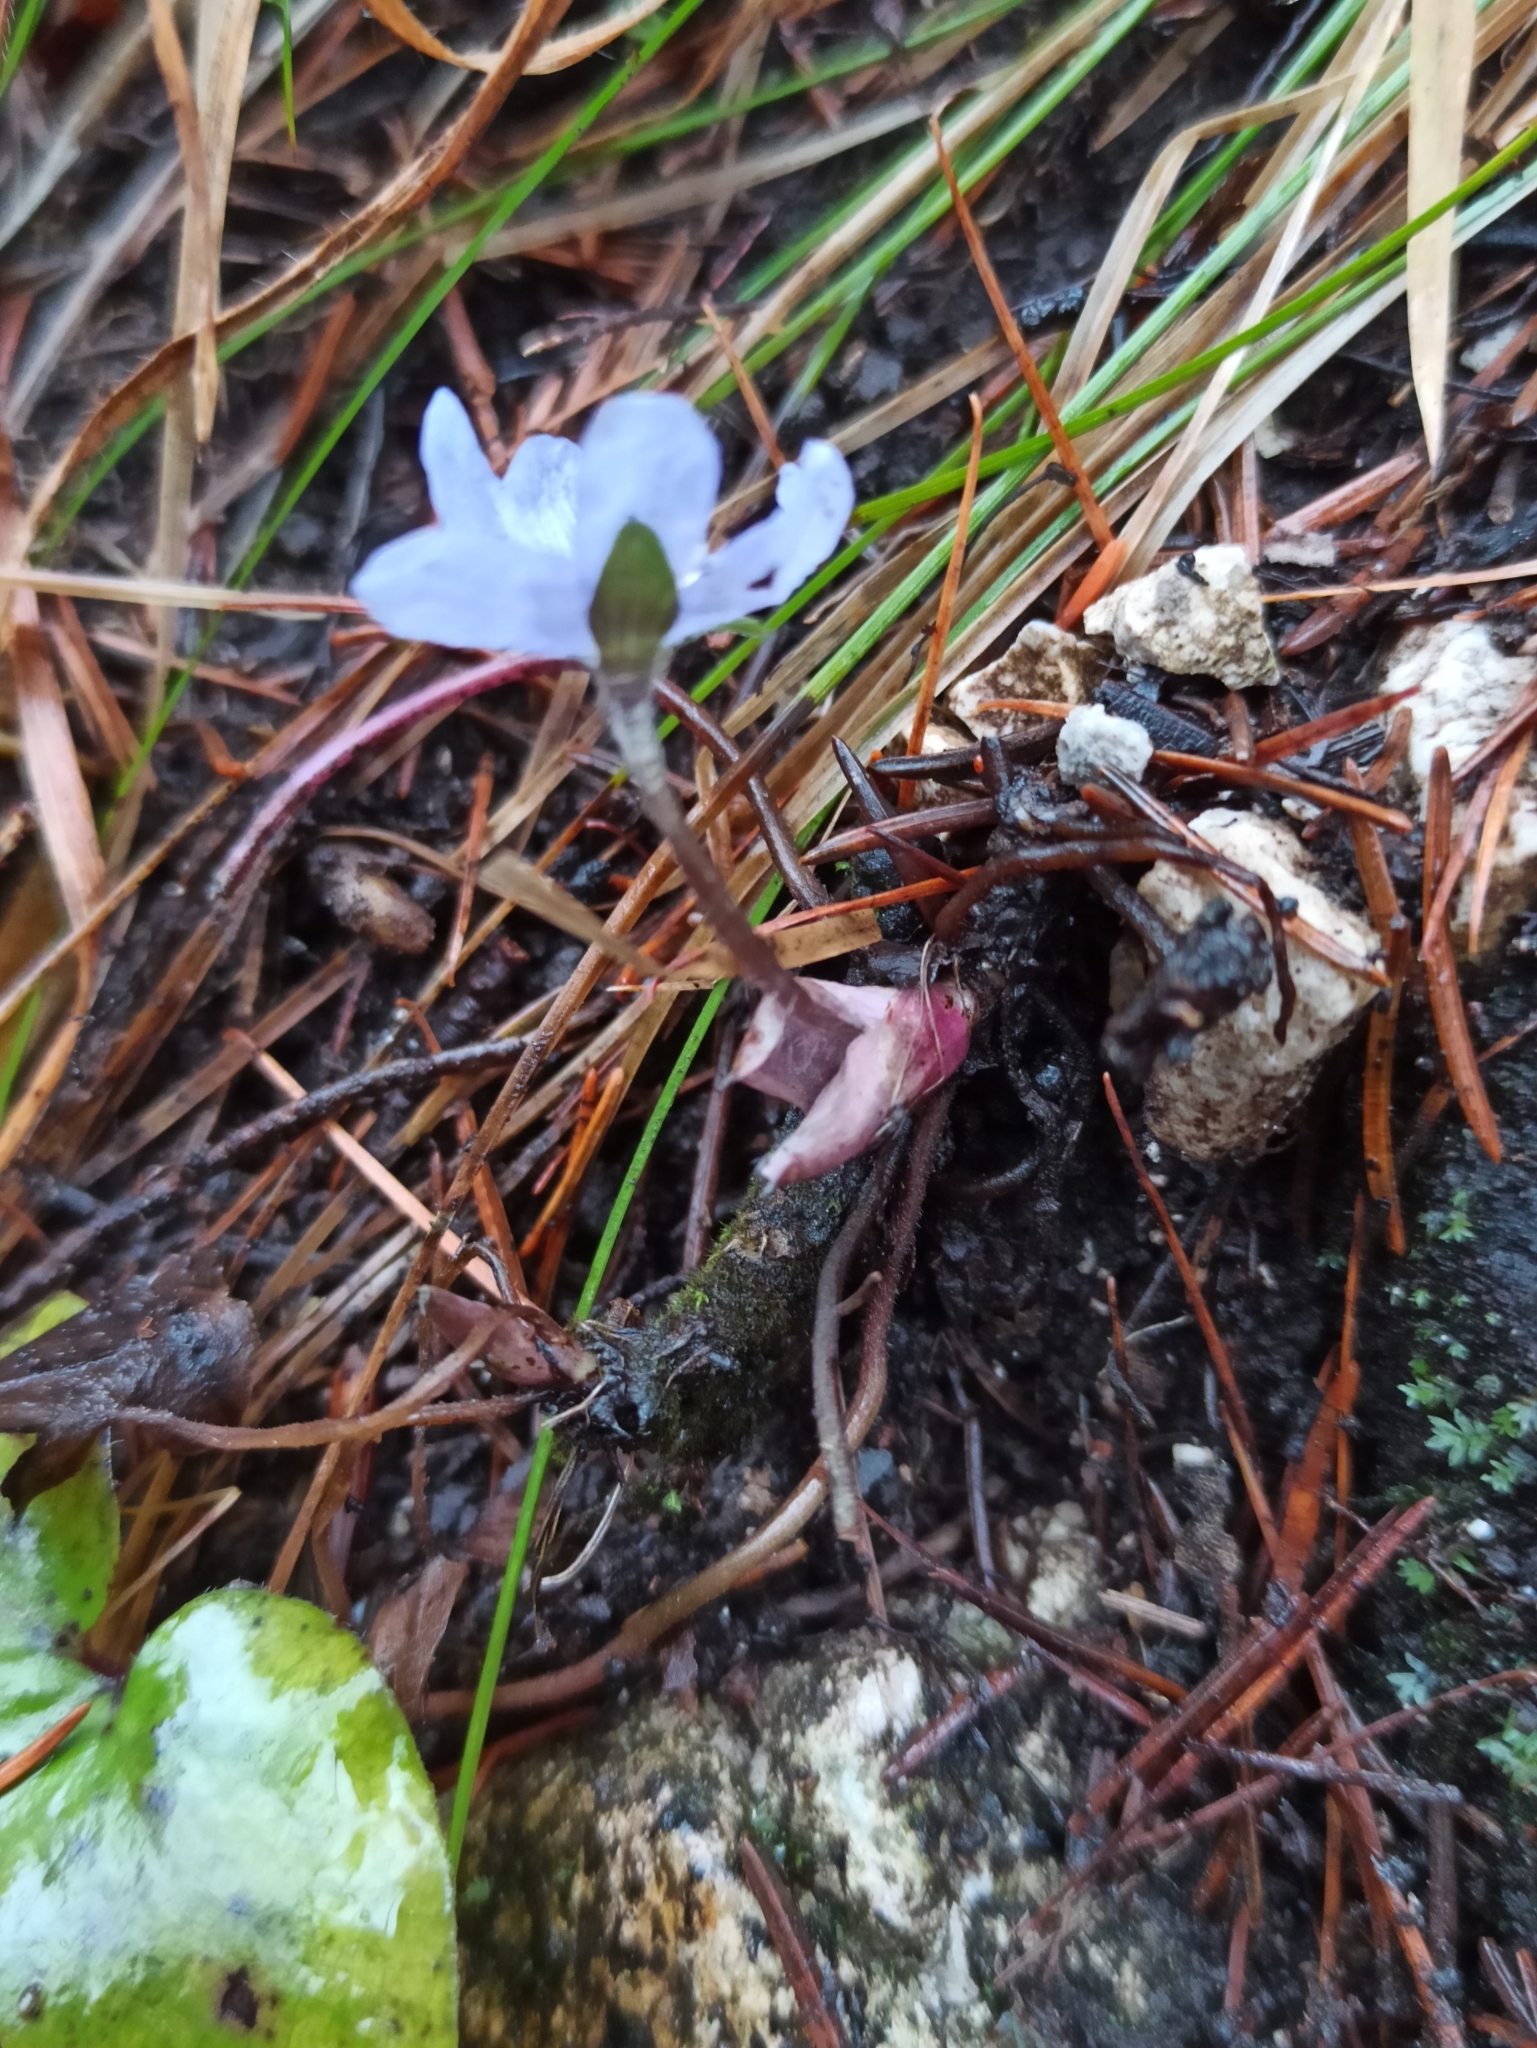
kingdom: Plantae
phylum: Tracheophyta
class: Magnoliopsida
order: Ranunculales
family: Ranunculaceae
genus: Hepatica
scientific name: Hepatica nobilis
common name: Liverleaf
